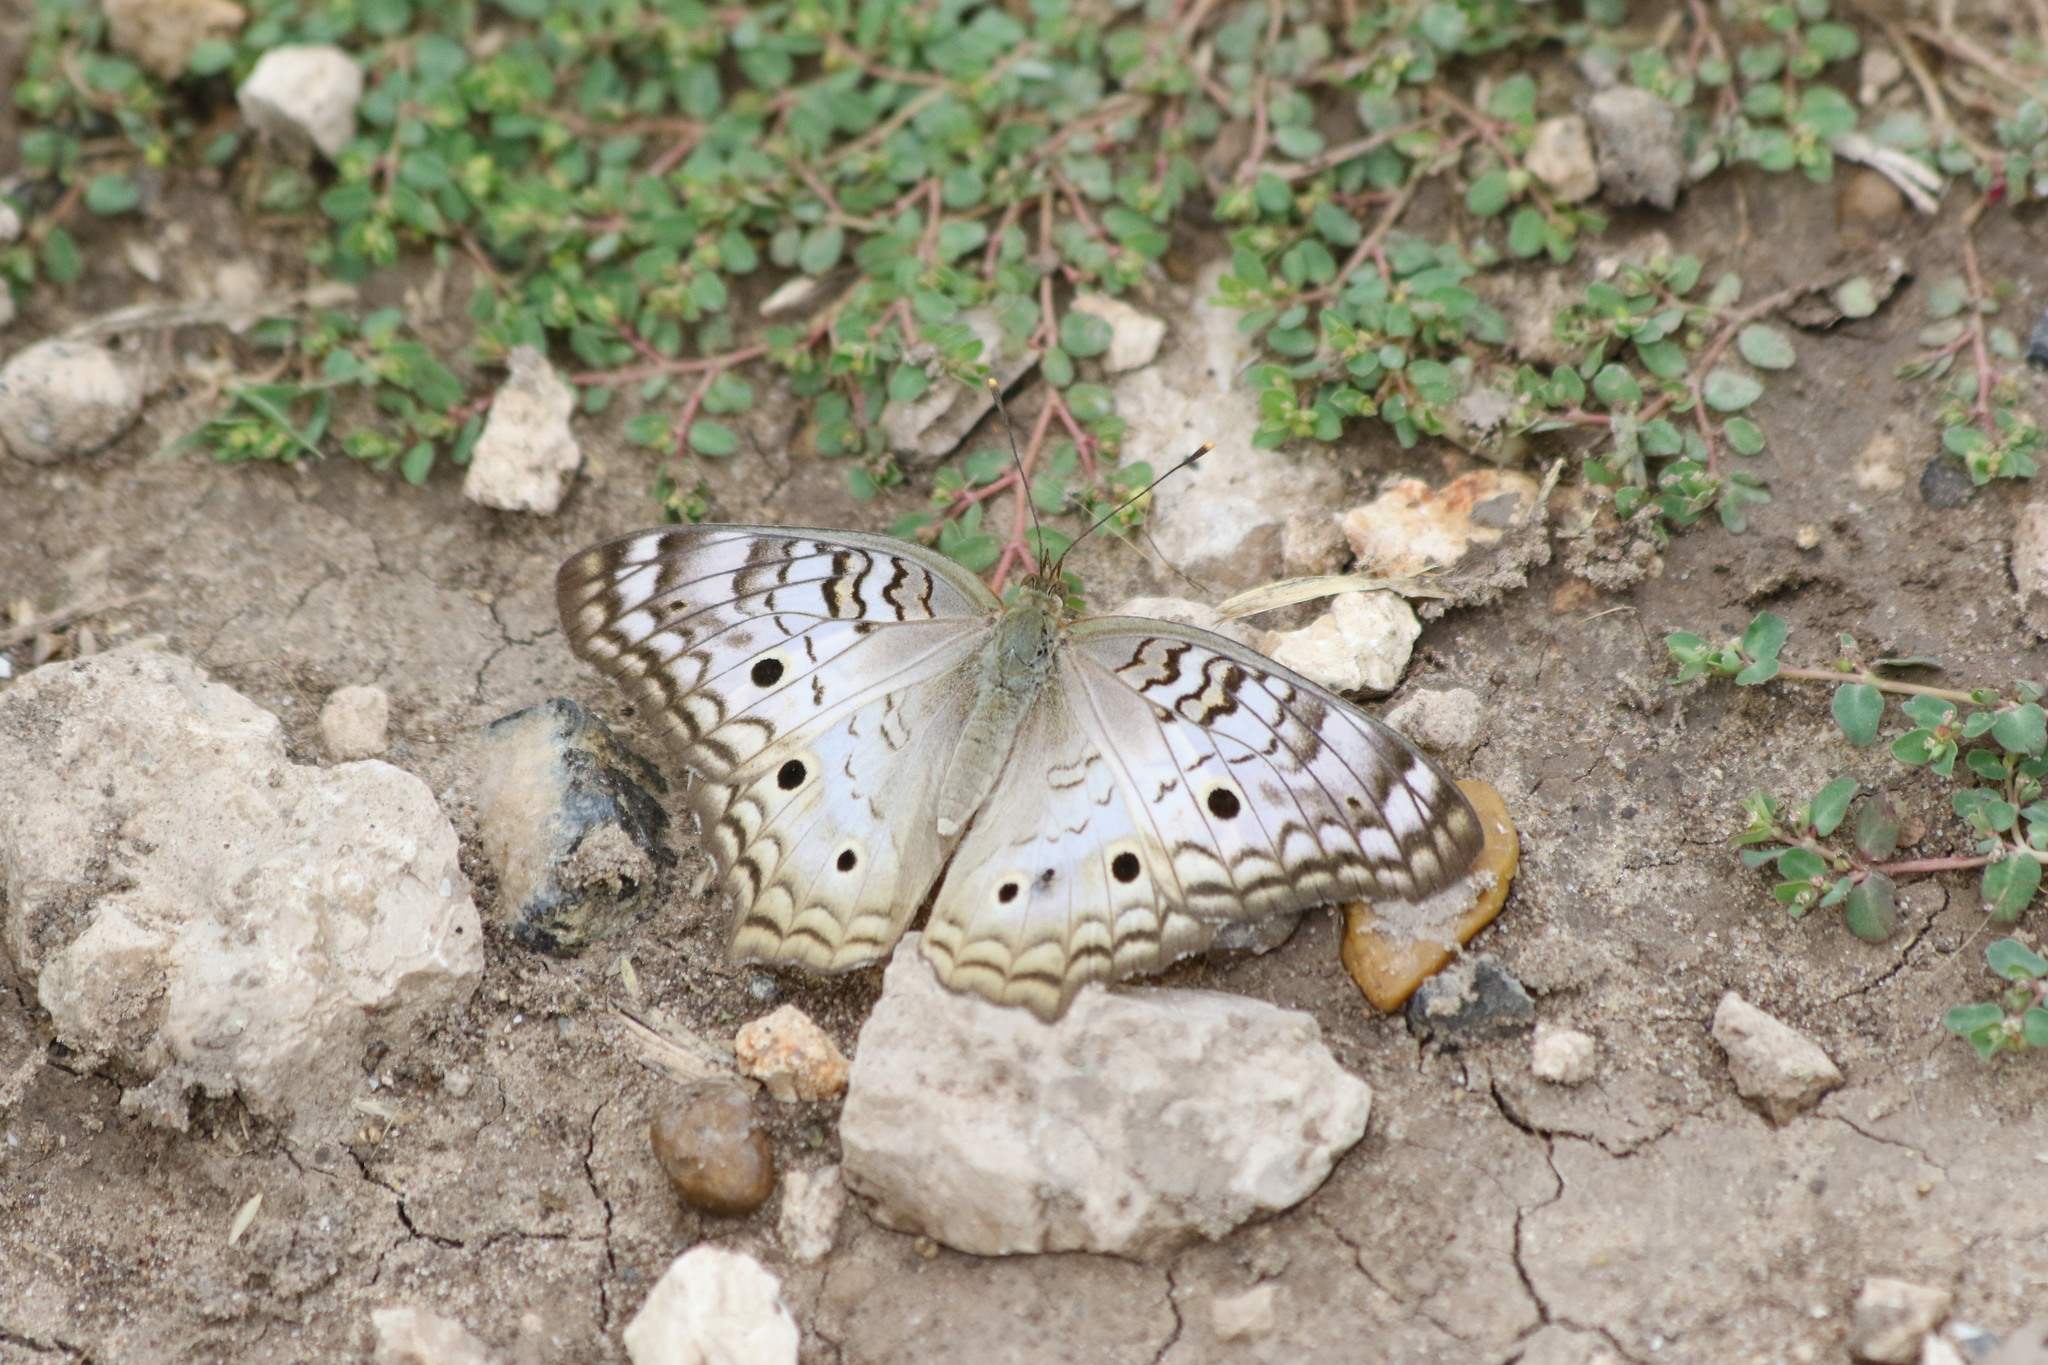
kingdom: Animalia
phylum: Arthropoda
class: Insecta
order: Lepidoptera
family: Nymphalidae
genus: Anartia
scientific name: Anartia jatrophae
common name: White peacock
